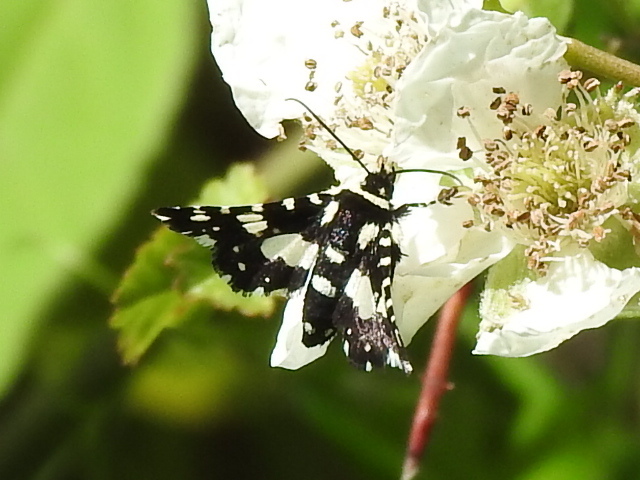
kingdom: Animalia
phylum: Arthropoda
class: Insecta
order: Lepidoptera
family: Thyrididae
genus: Pseudothyris
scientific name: Pseudothyris sepulchralis
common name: Mournful thyris moth
